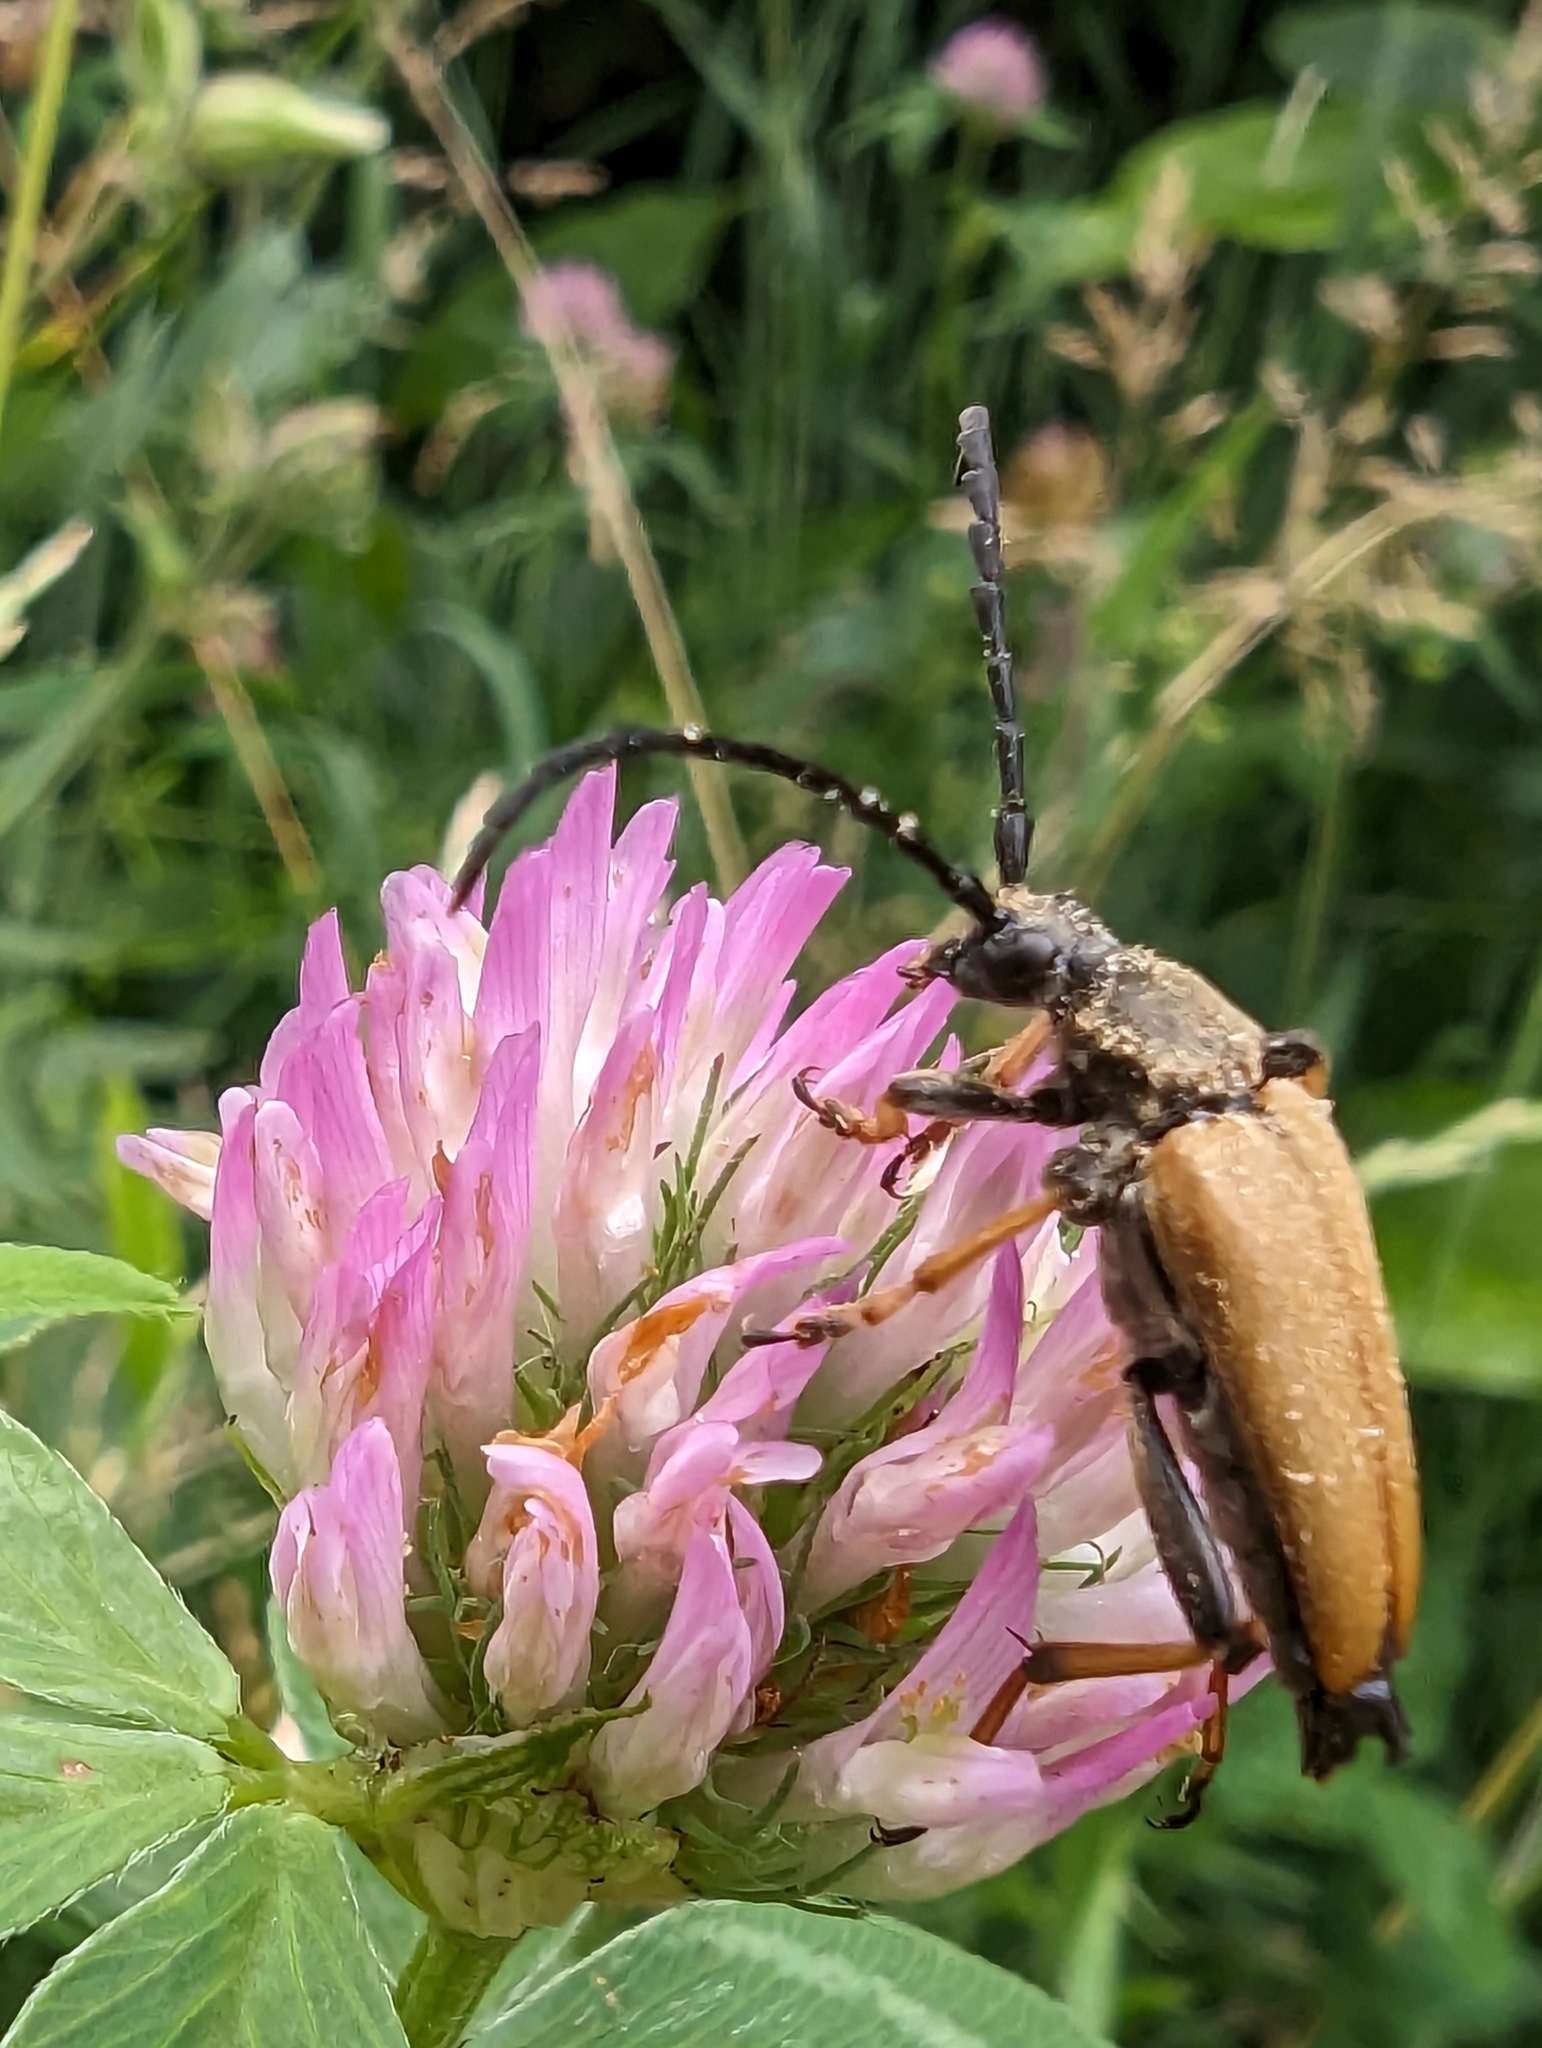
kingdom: Animalia
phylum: Arthropoda
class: Insecta
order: Coleoptera
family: Cerambycidae
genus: Stictoleptura
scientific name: Stictoleptura rubra
